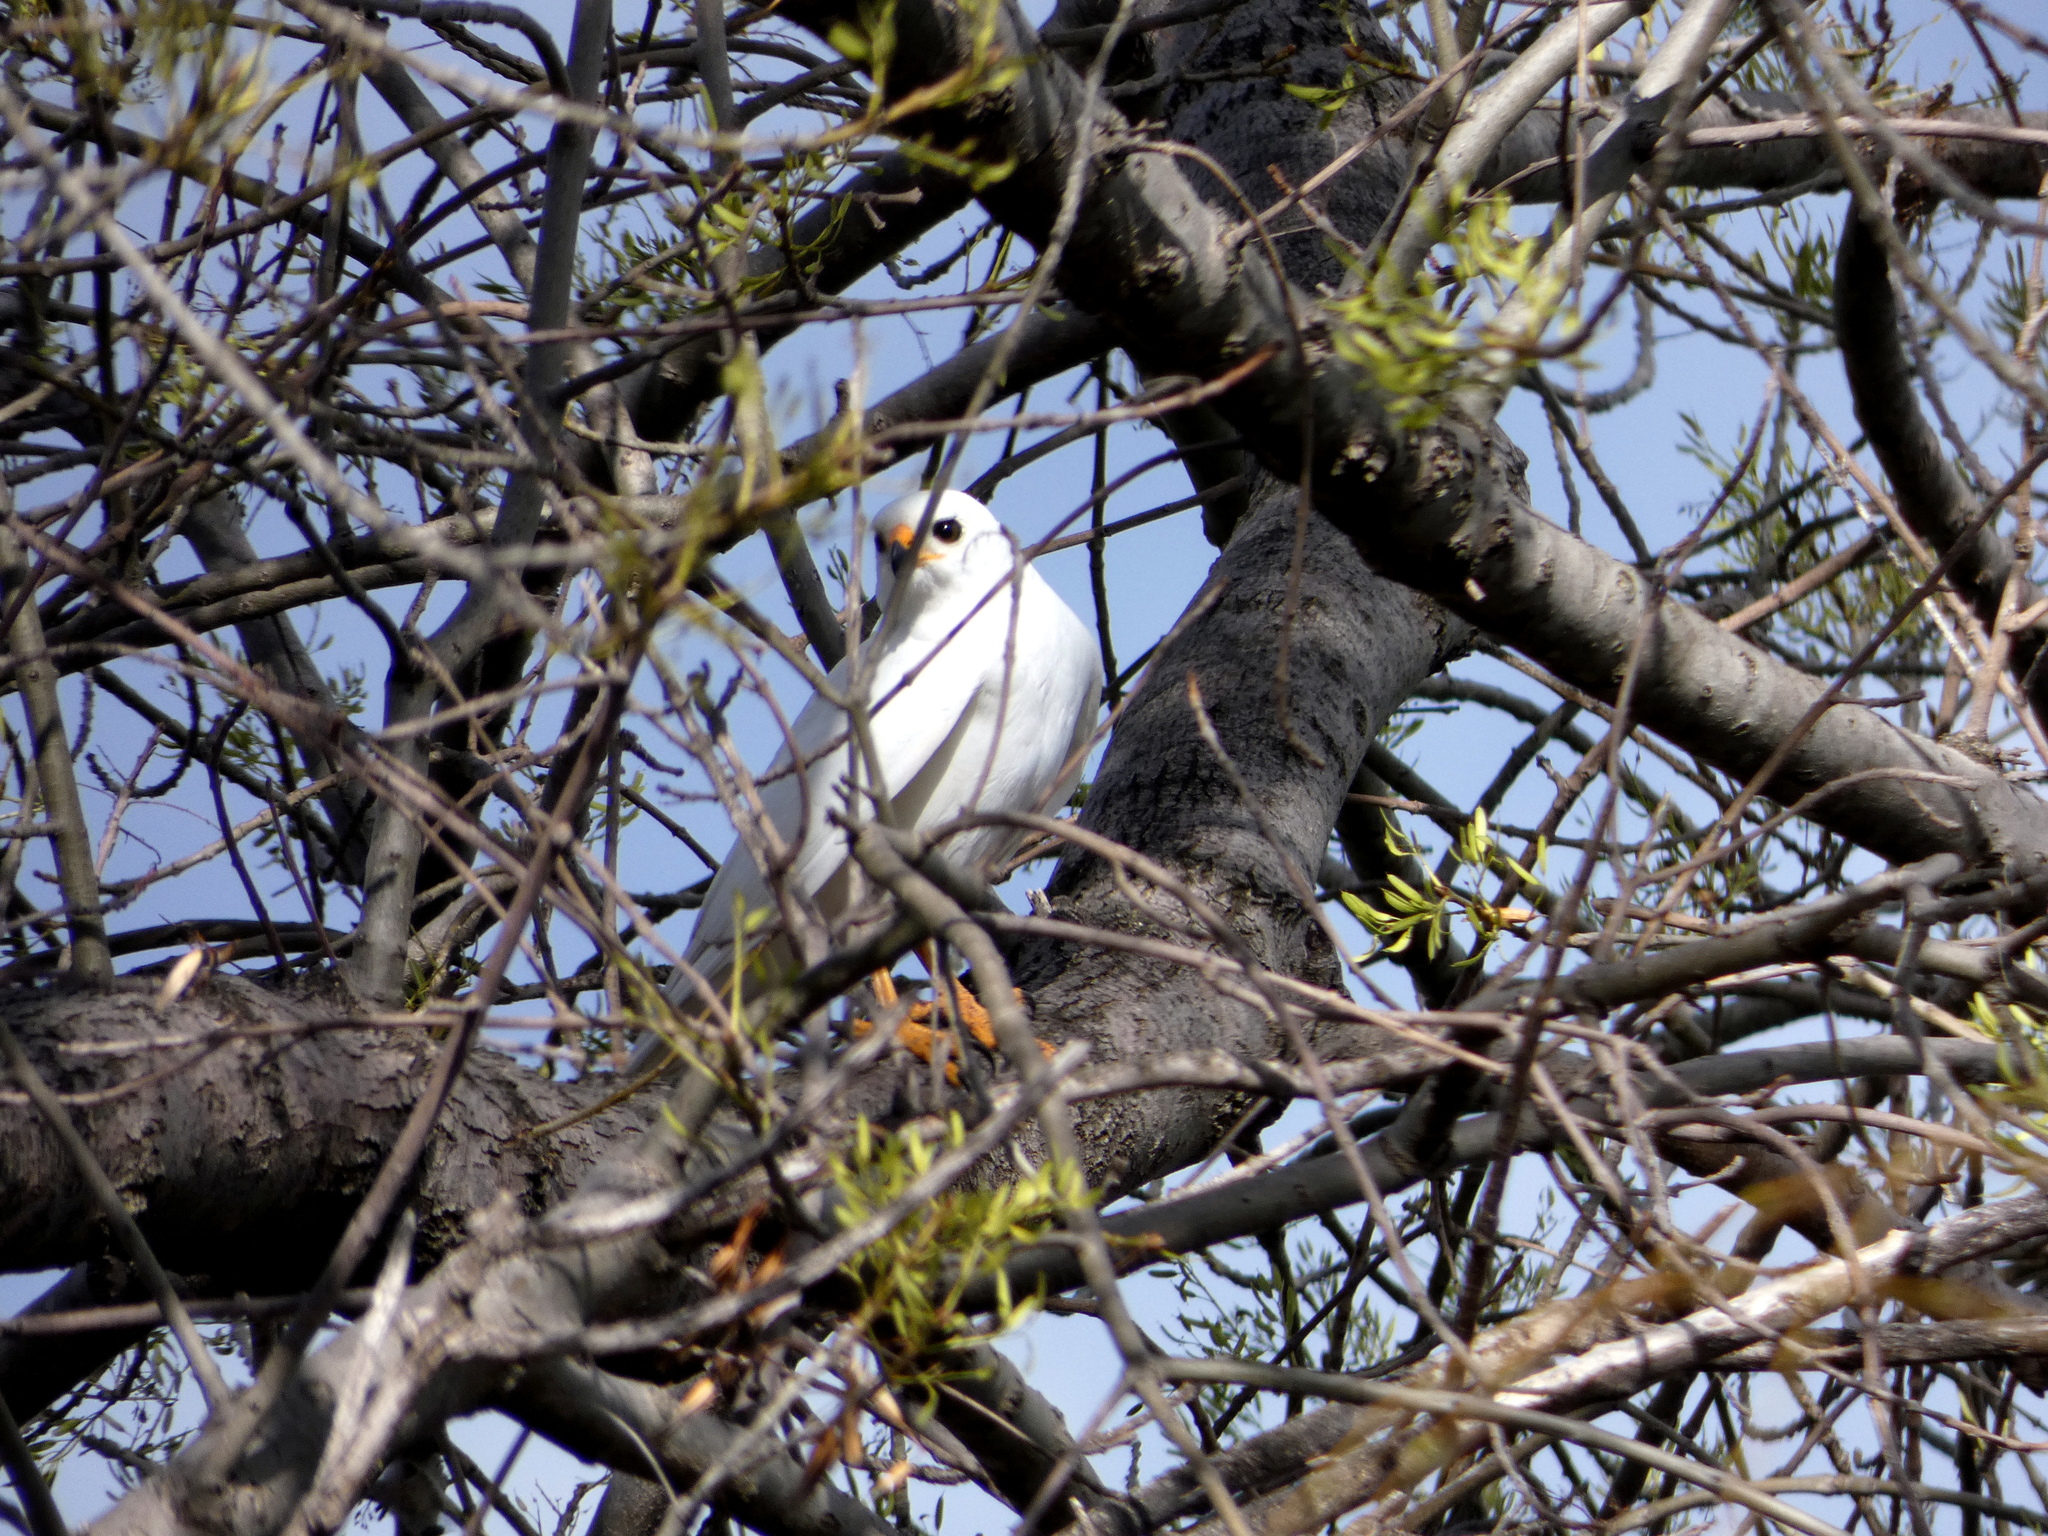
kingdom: Animalia
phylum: Chordata
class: Aves
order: Accipitriformes
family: Accipitridae
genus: Accipiter
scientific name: Accipiter novaehollandiae
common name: Grey goshawk
